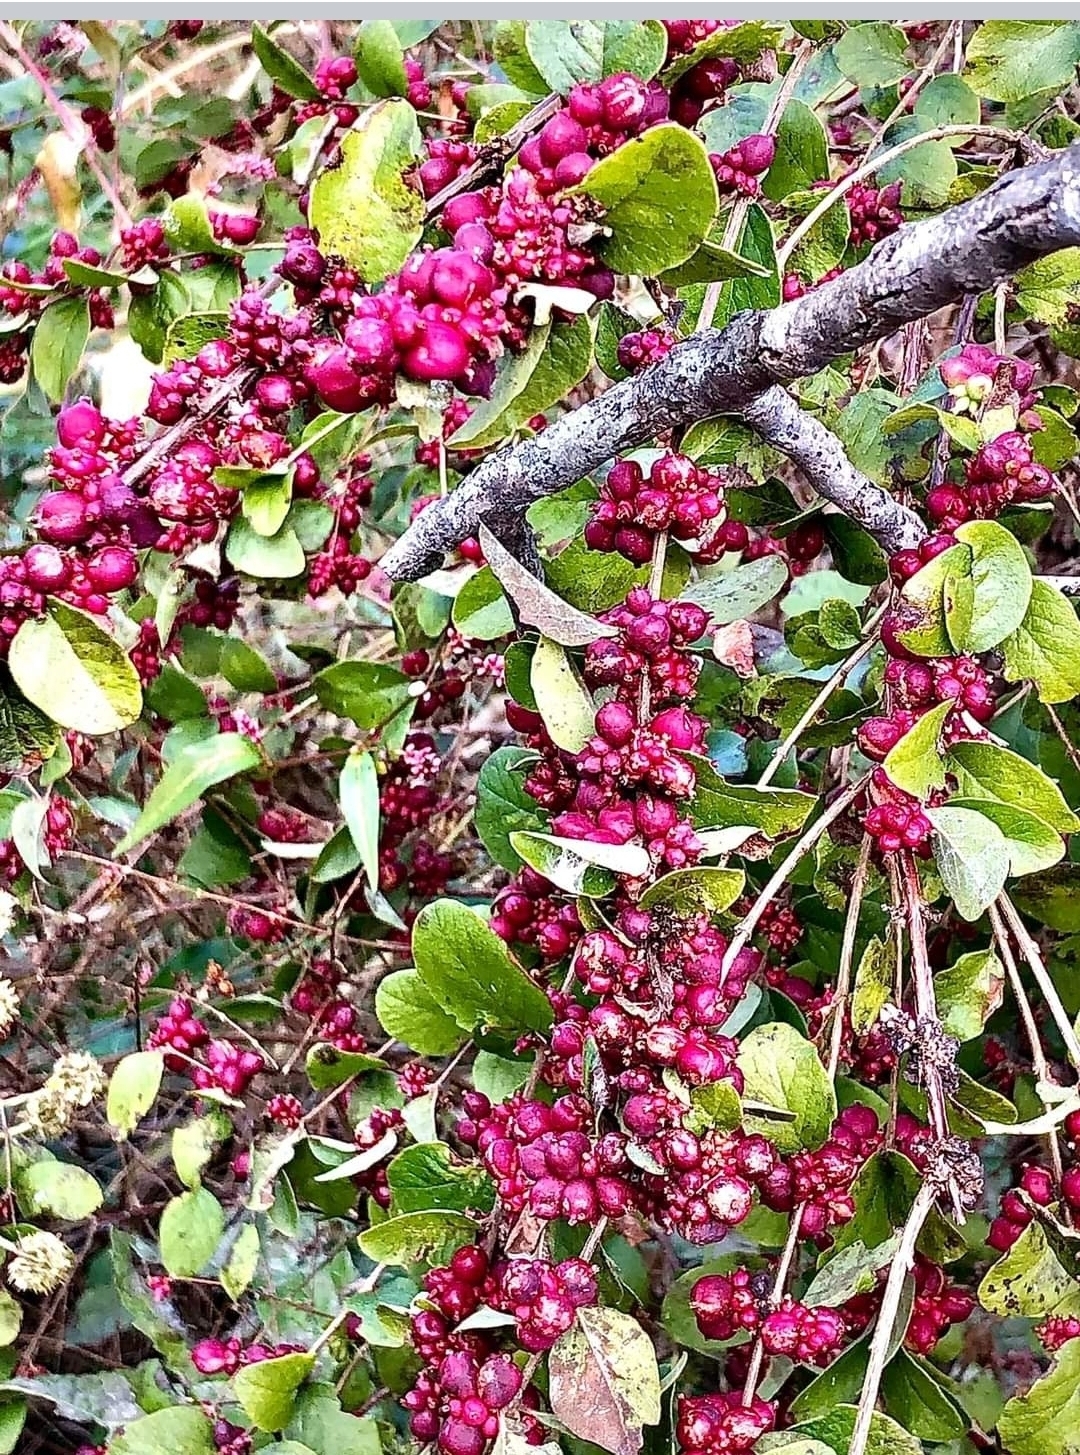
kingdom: Plantae
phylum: Tracheophyta
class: Magnoliopsida
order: Dipsacales
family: Caprifoliaceae
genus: Symphoricarpos
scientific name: Symphoricarpos orbiculatus
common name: Coralberry
